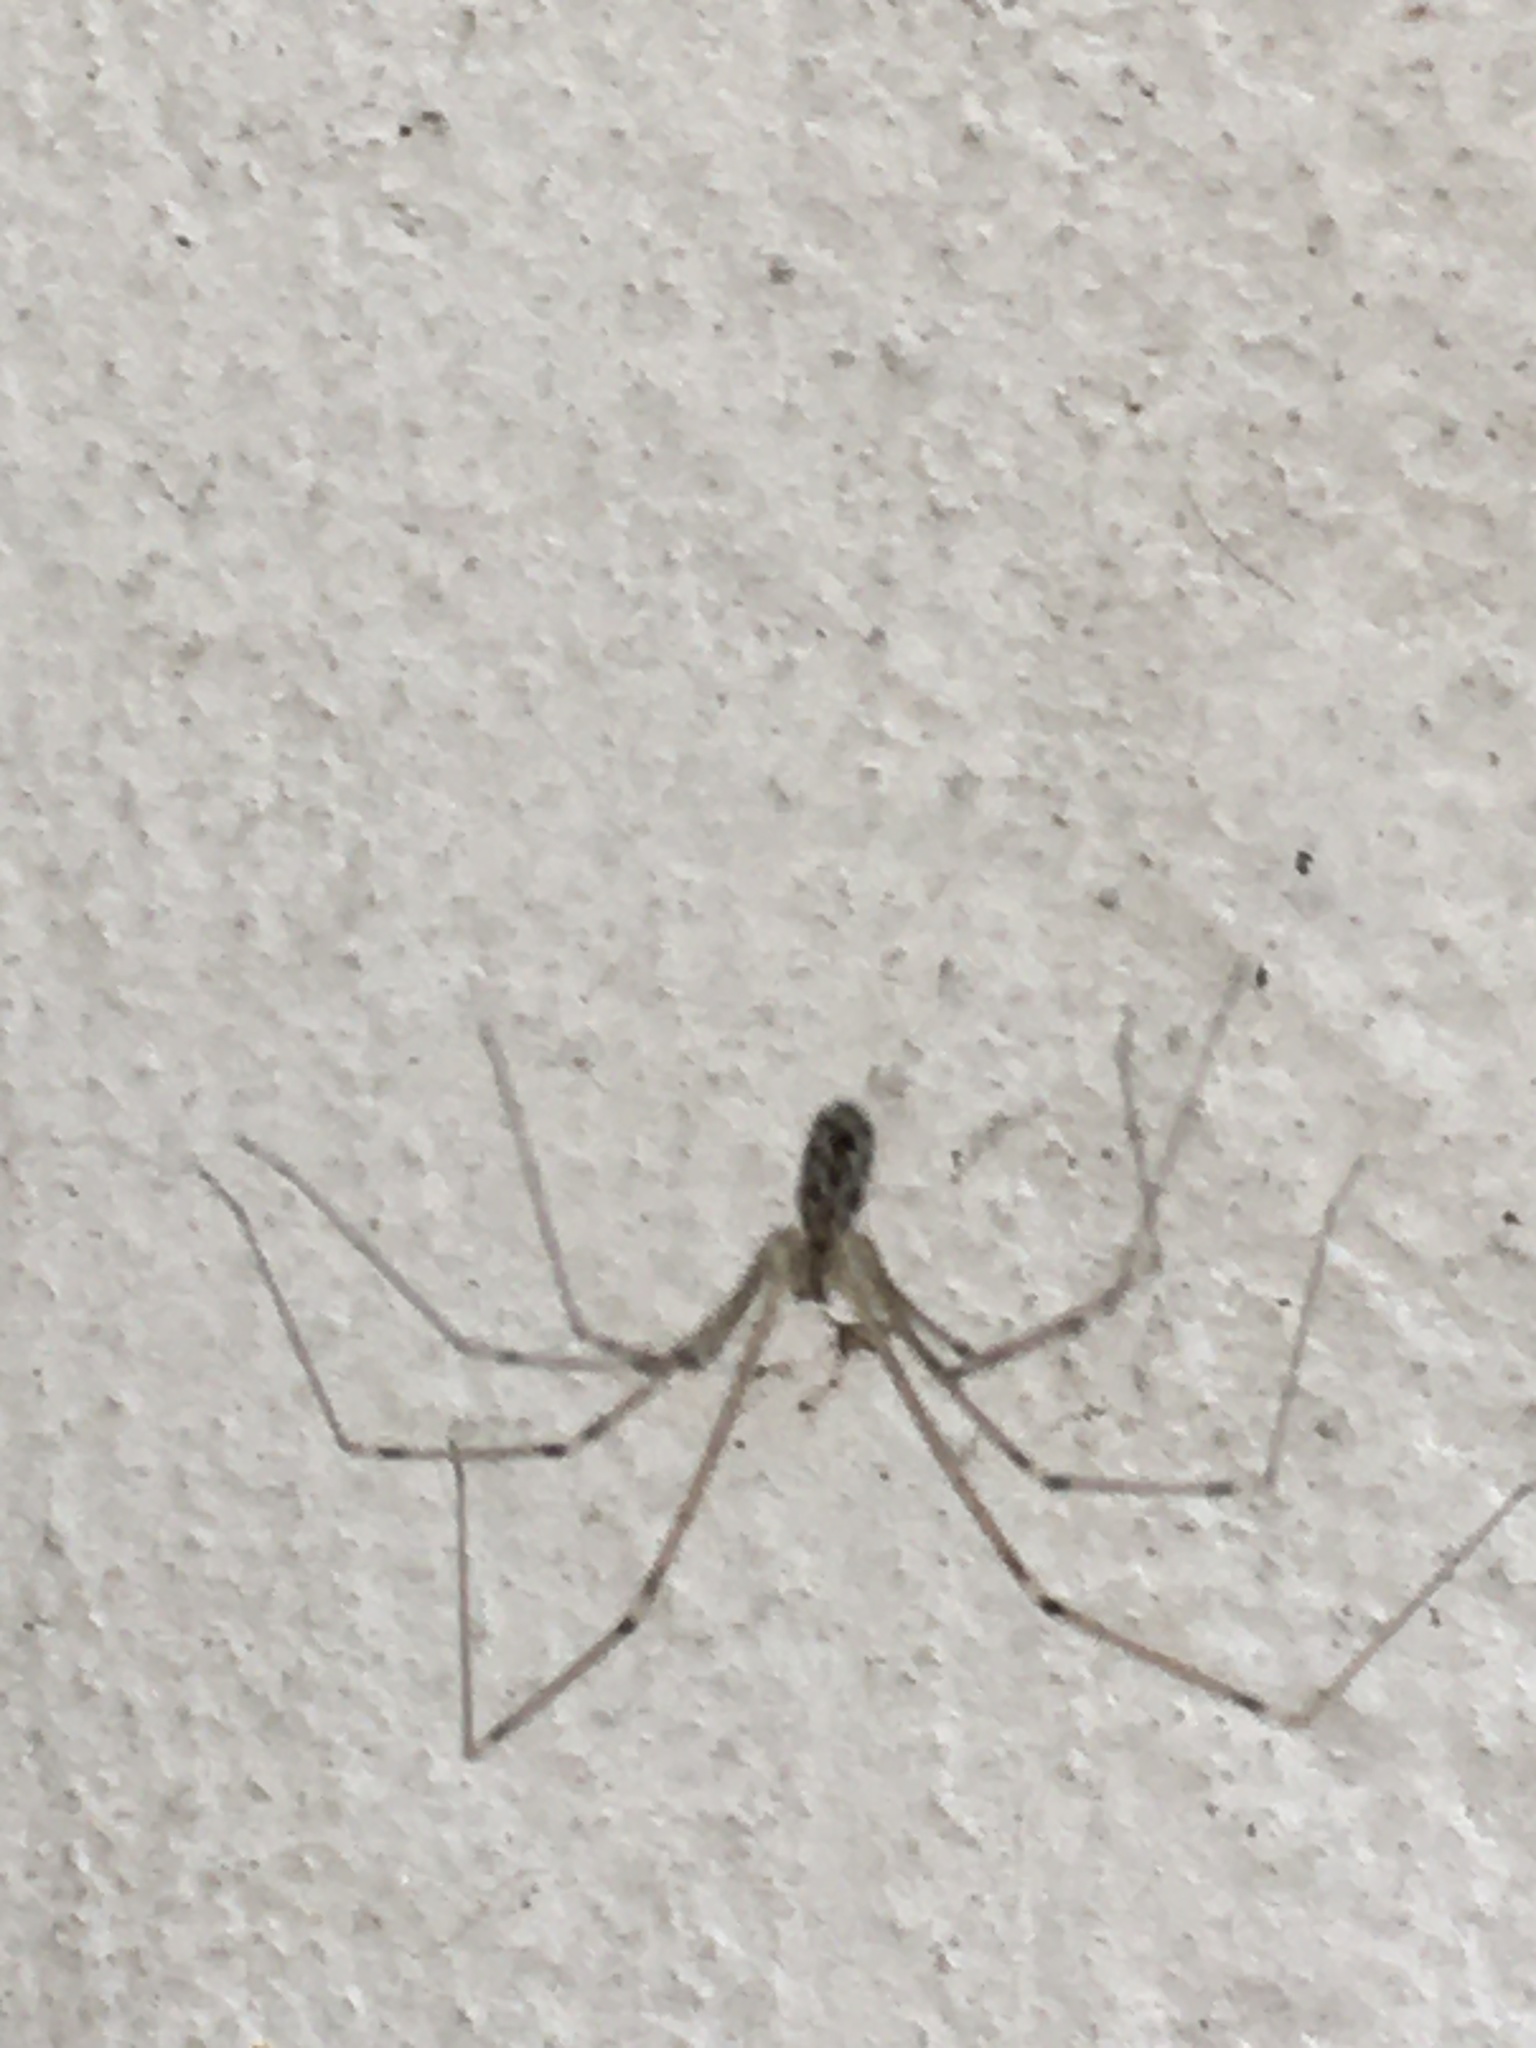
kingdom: Animalia
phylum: Arthropoda
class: Arachnida
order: Araneae
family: Pholcidae
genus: Holocnemus
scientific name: Holocnemus pluchei
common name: Marbled cellar spider
